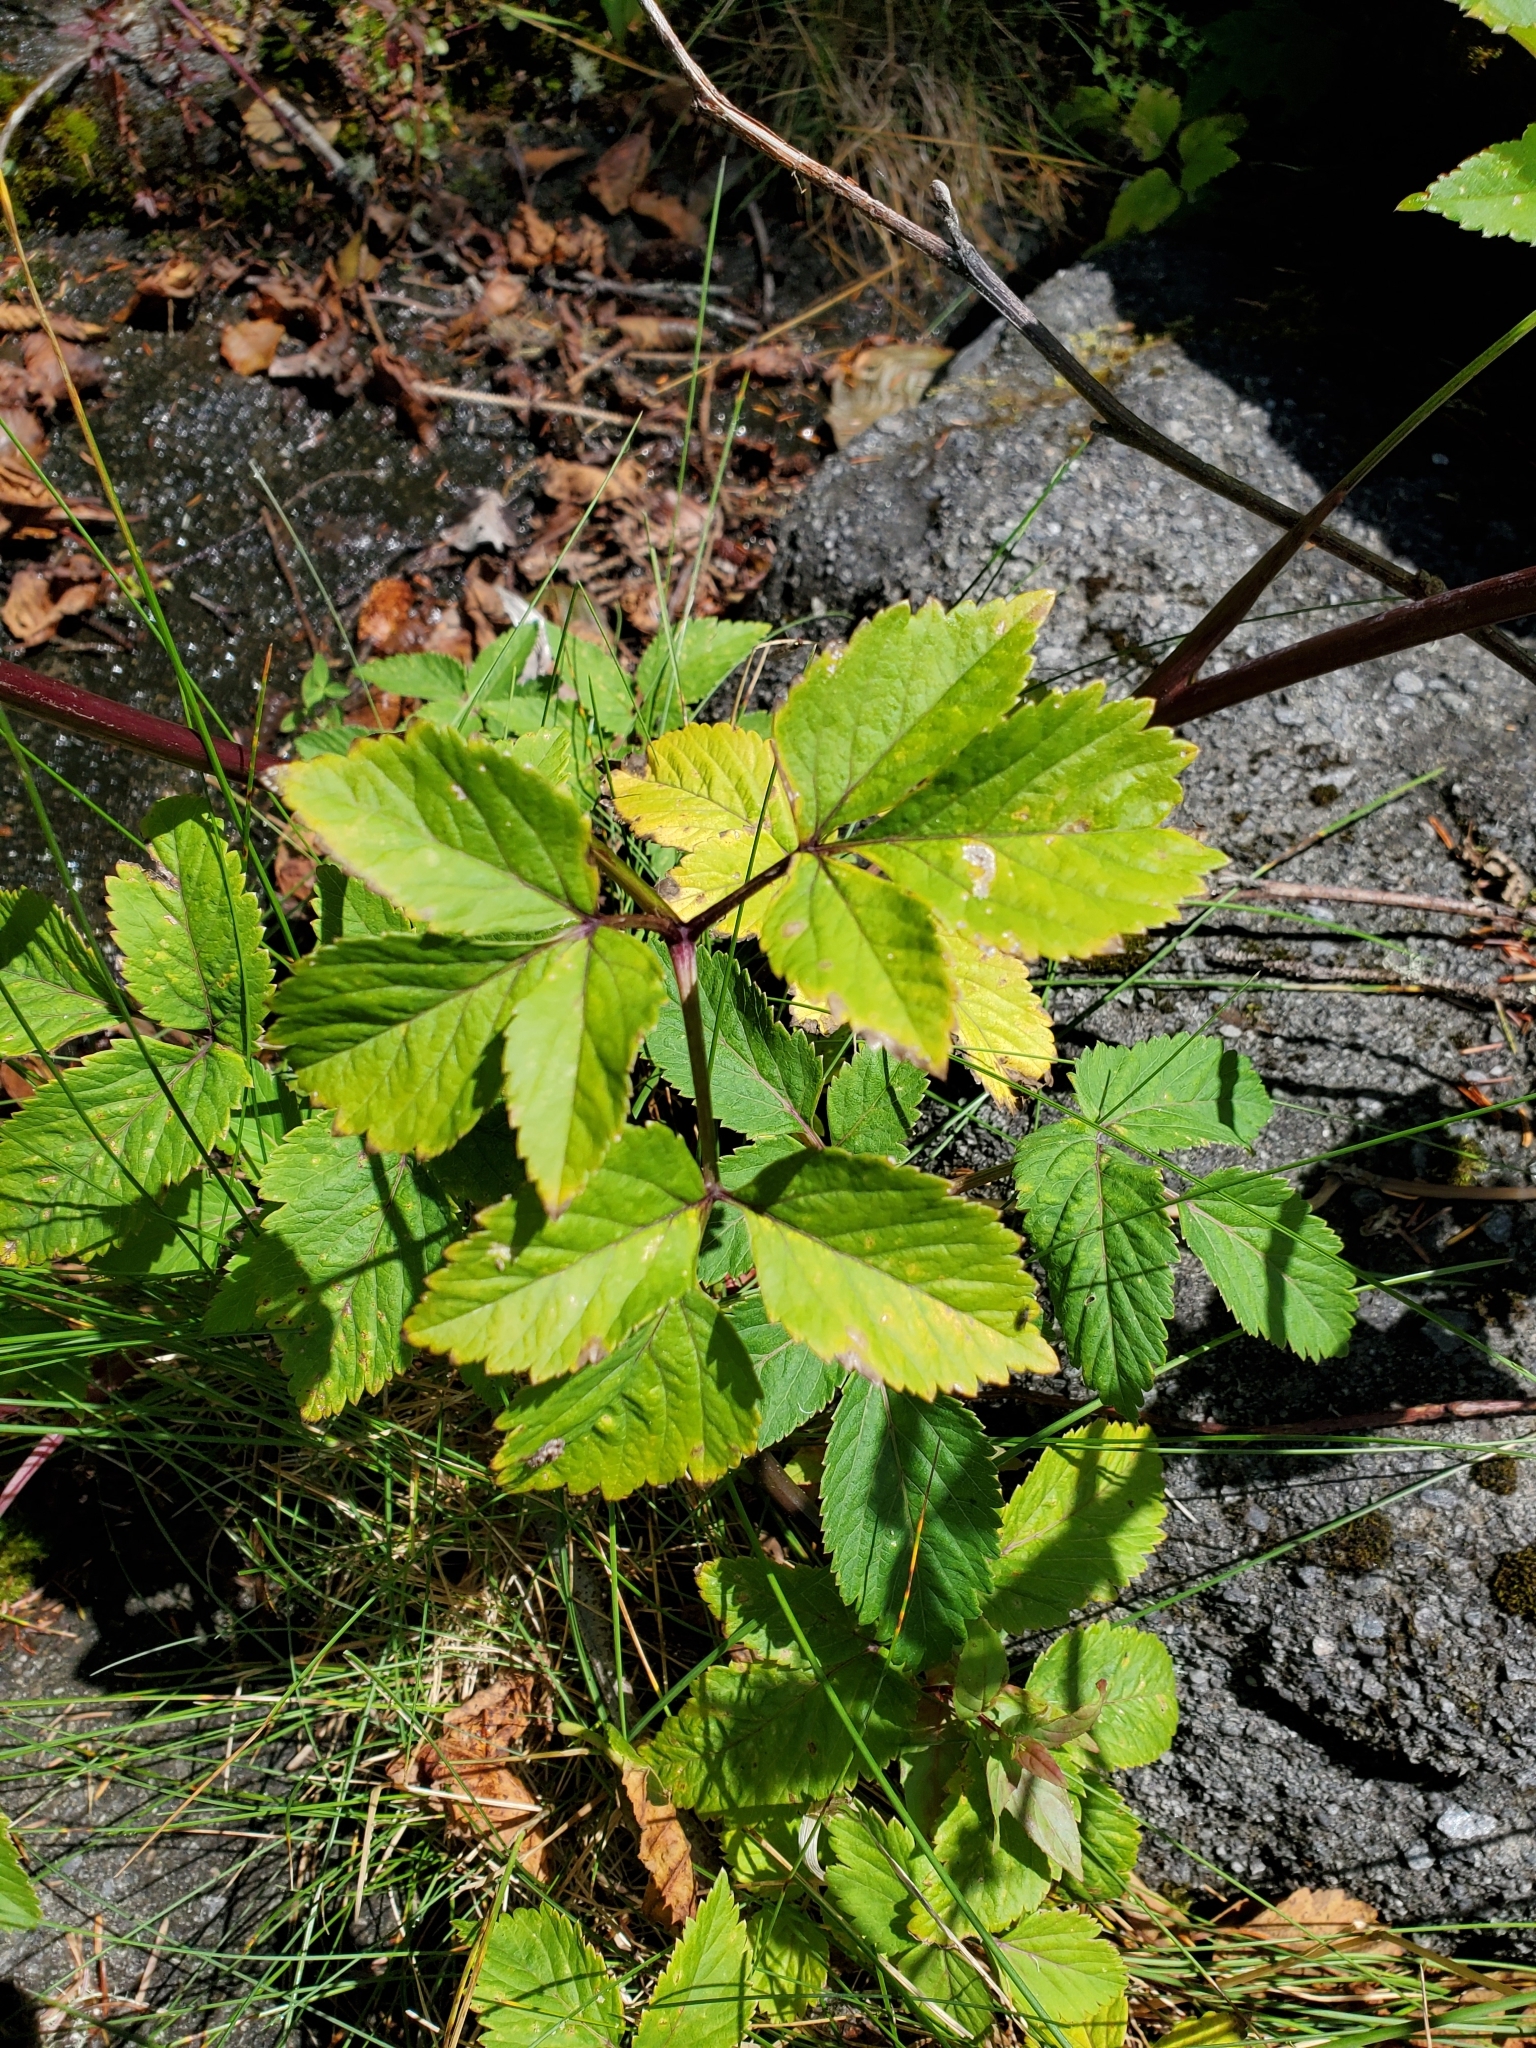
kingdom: Plantae
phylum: Tracheophyta
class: Magnoliopsida
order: Apiales
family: Apiaceae
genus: Angelica
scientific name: Angelica genuflexa
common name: Kneeling angelica
